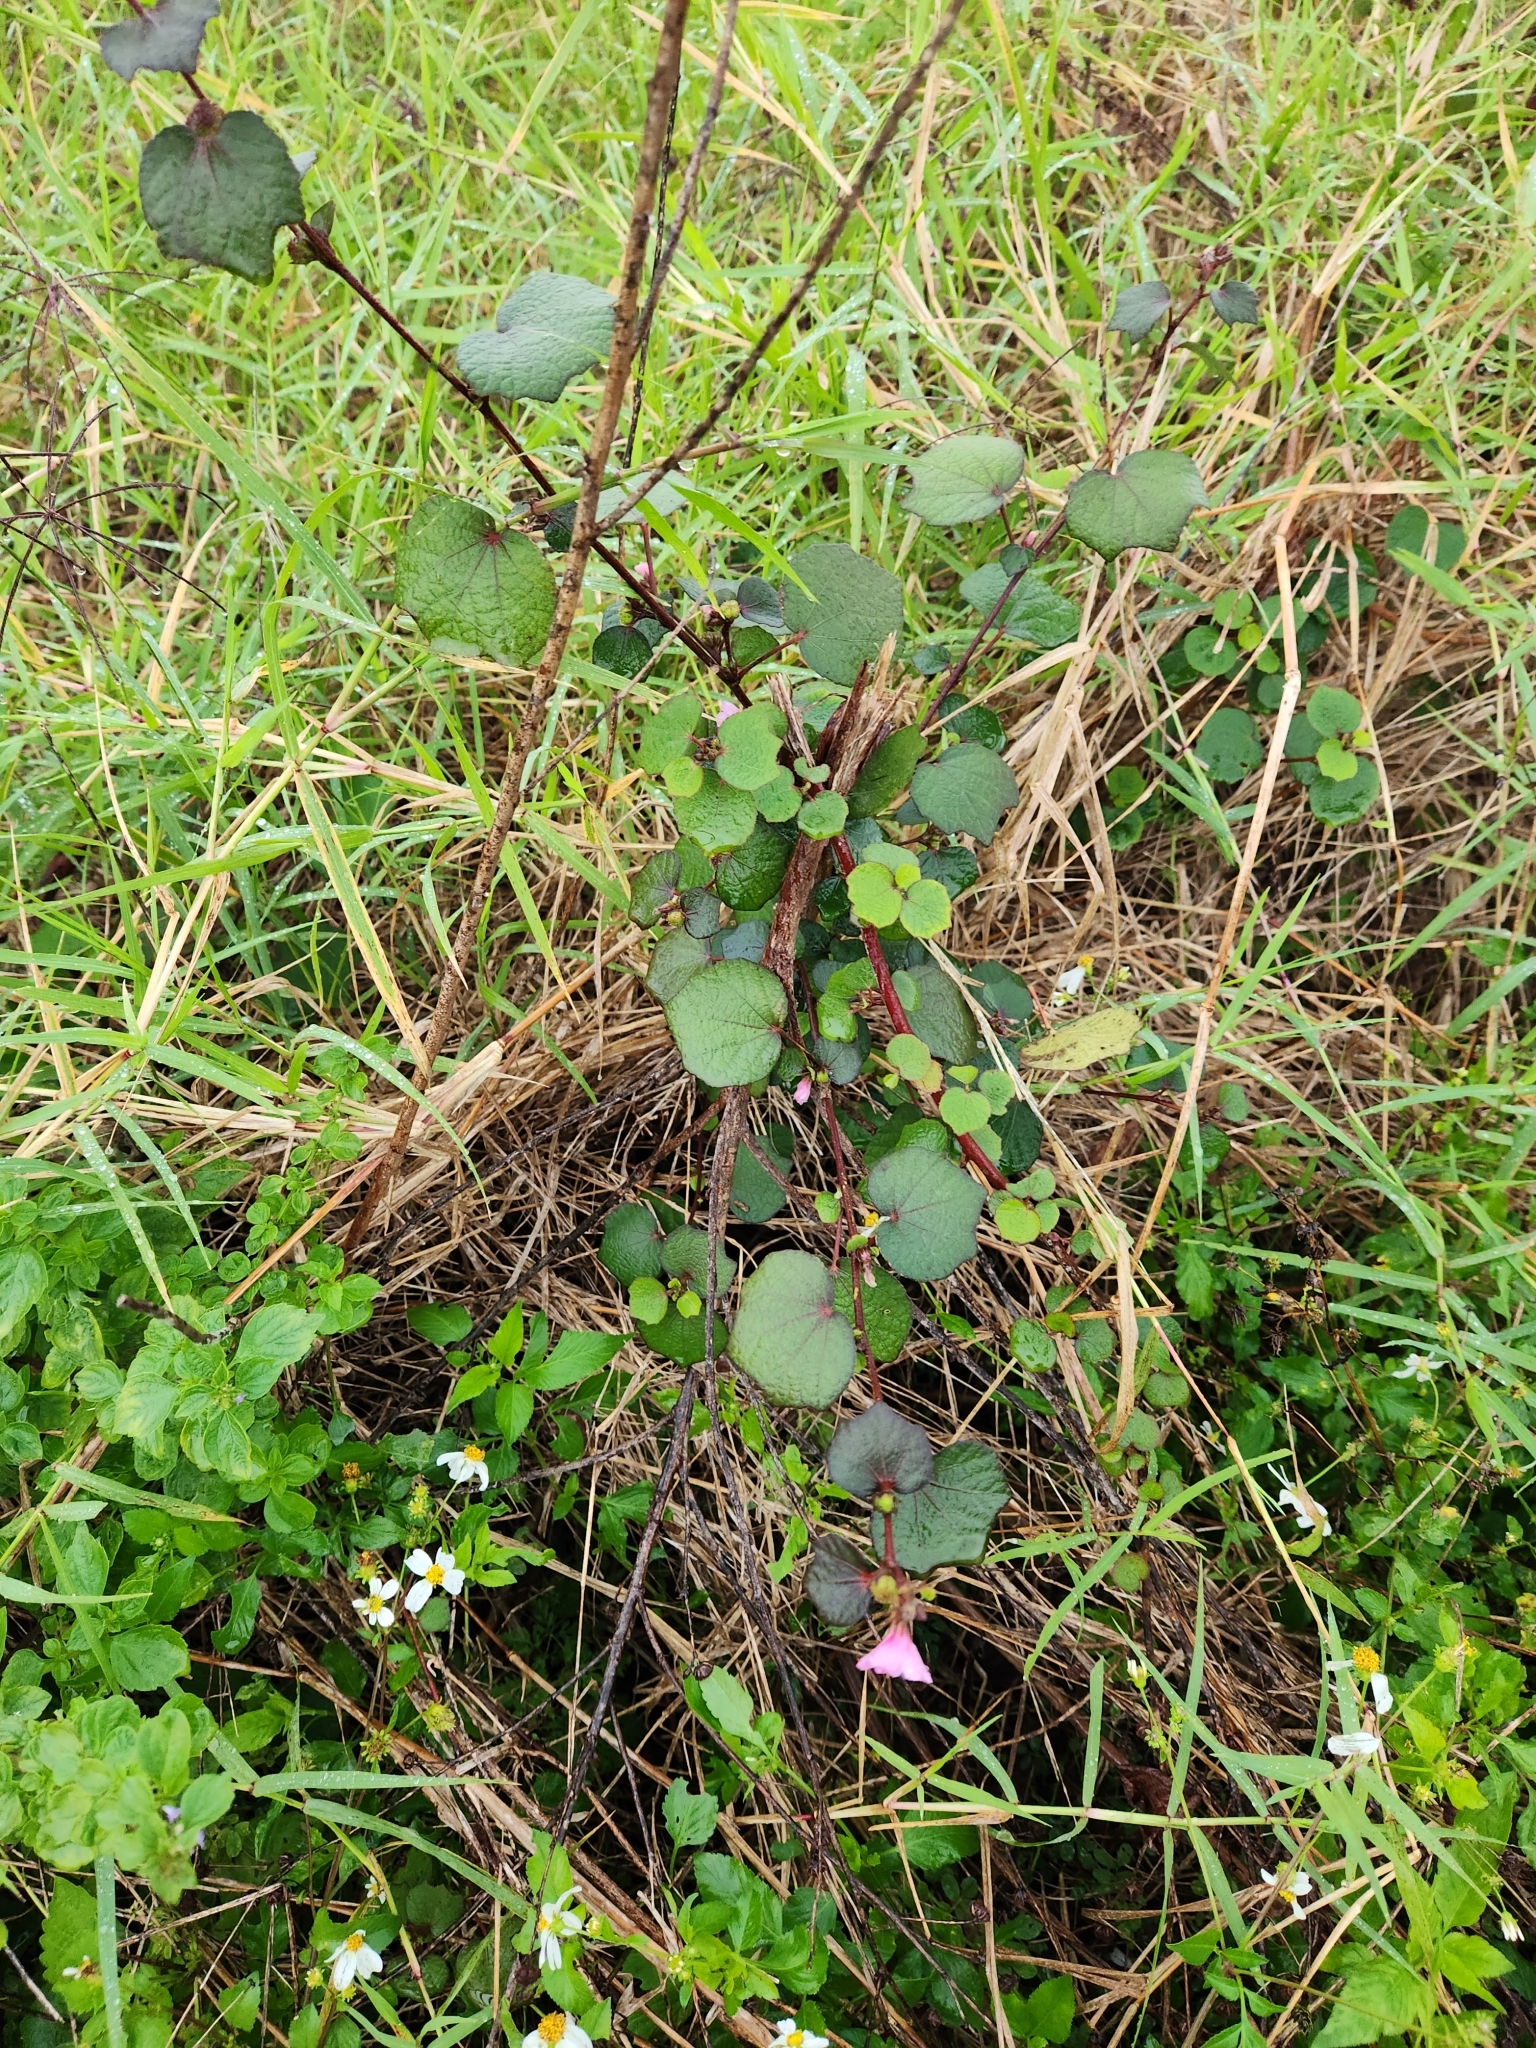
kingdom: Plantae
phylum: Tracheophyta
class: Magnoliopsida
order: Malvales
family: Malvaceae
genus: Urena
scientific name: Urena lobata
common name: Caesarweed
